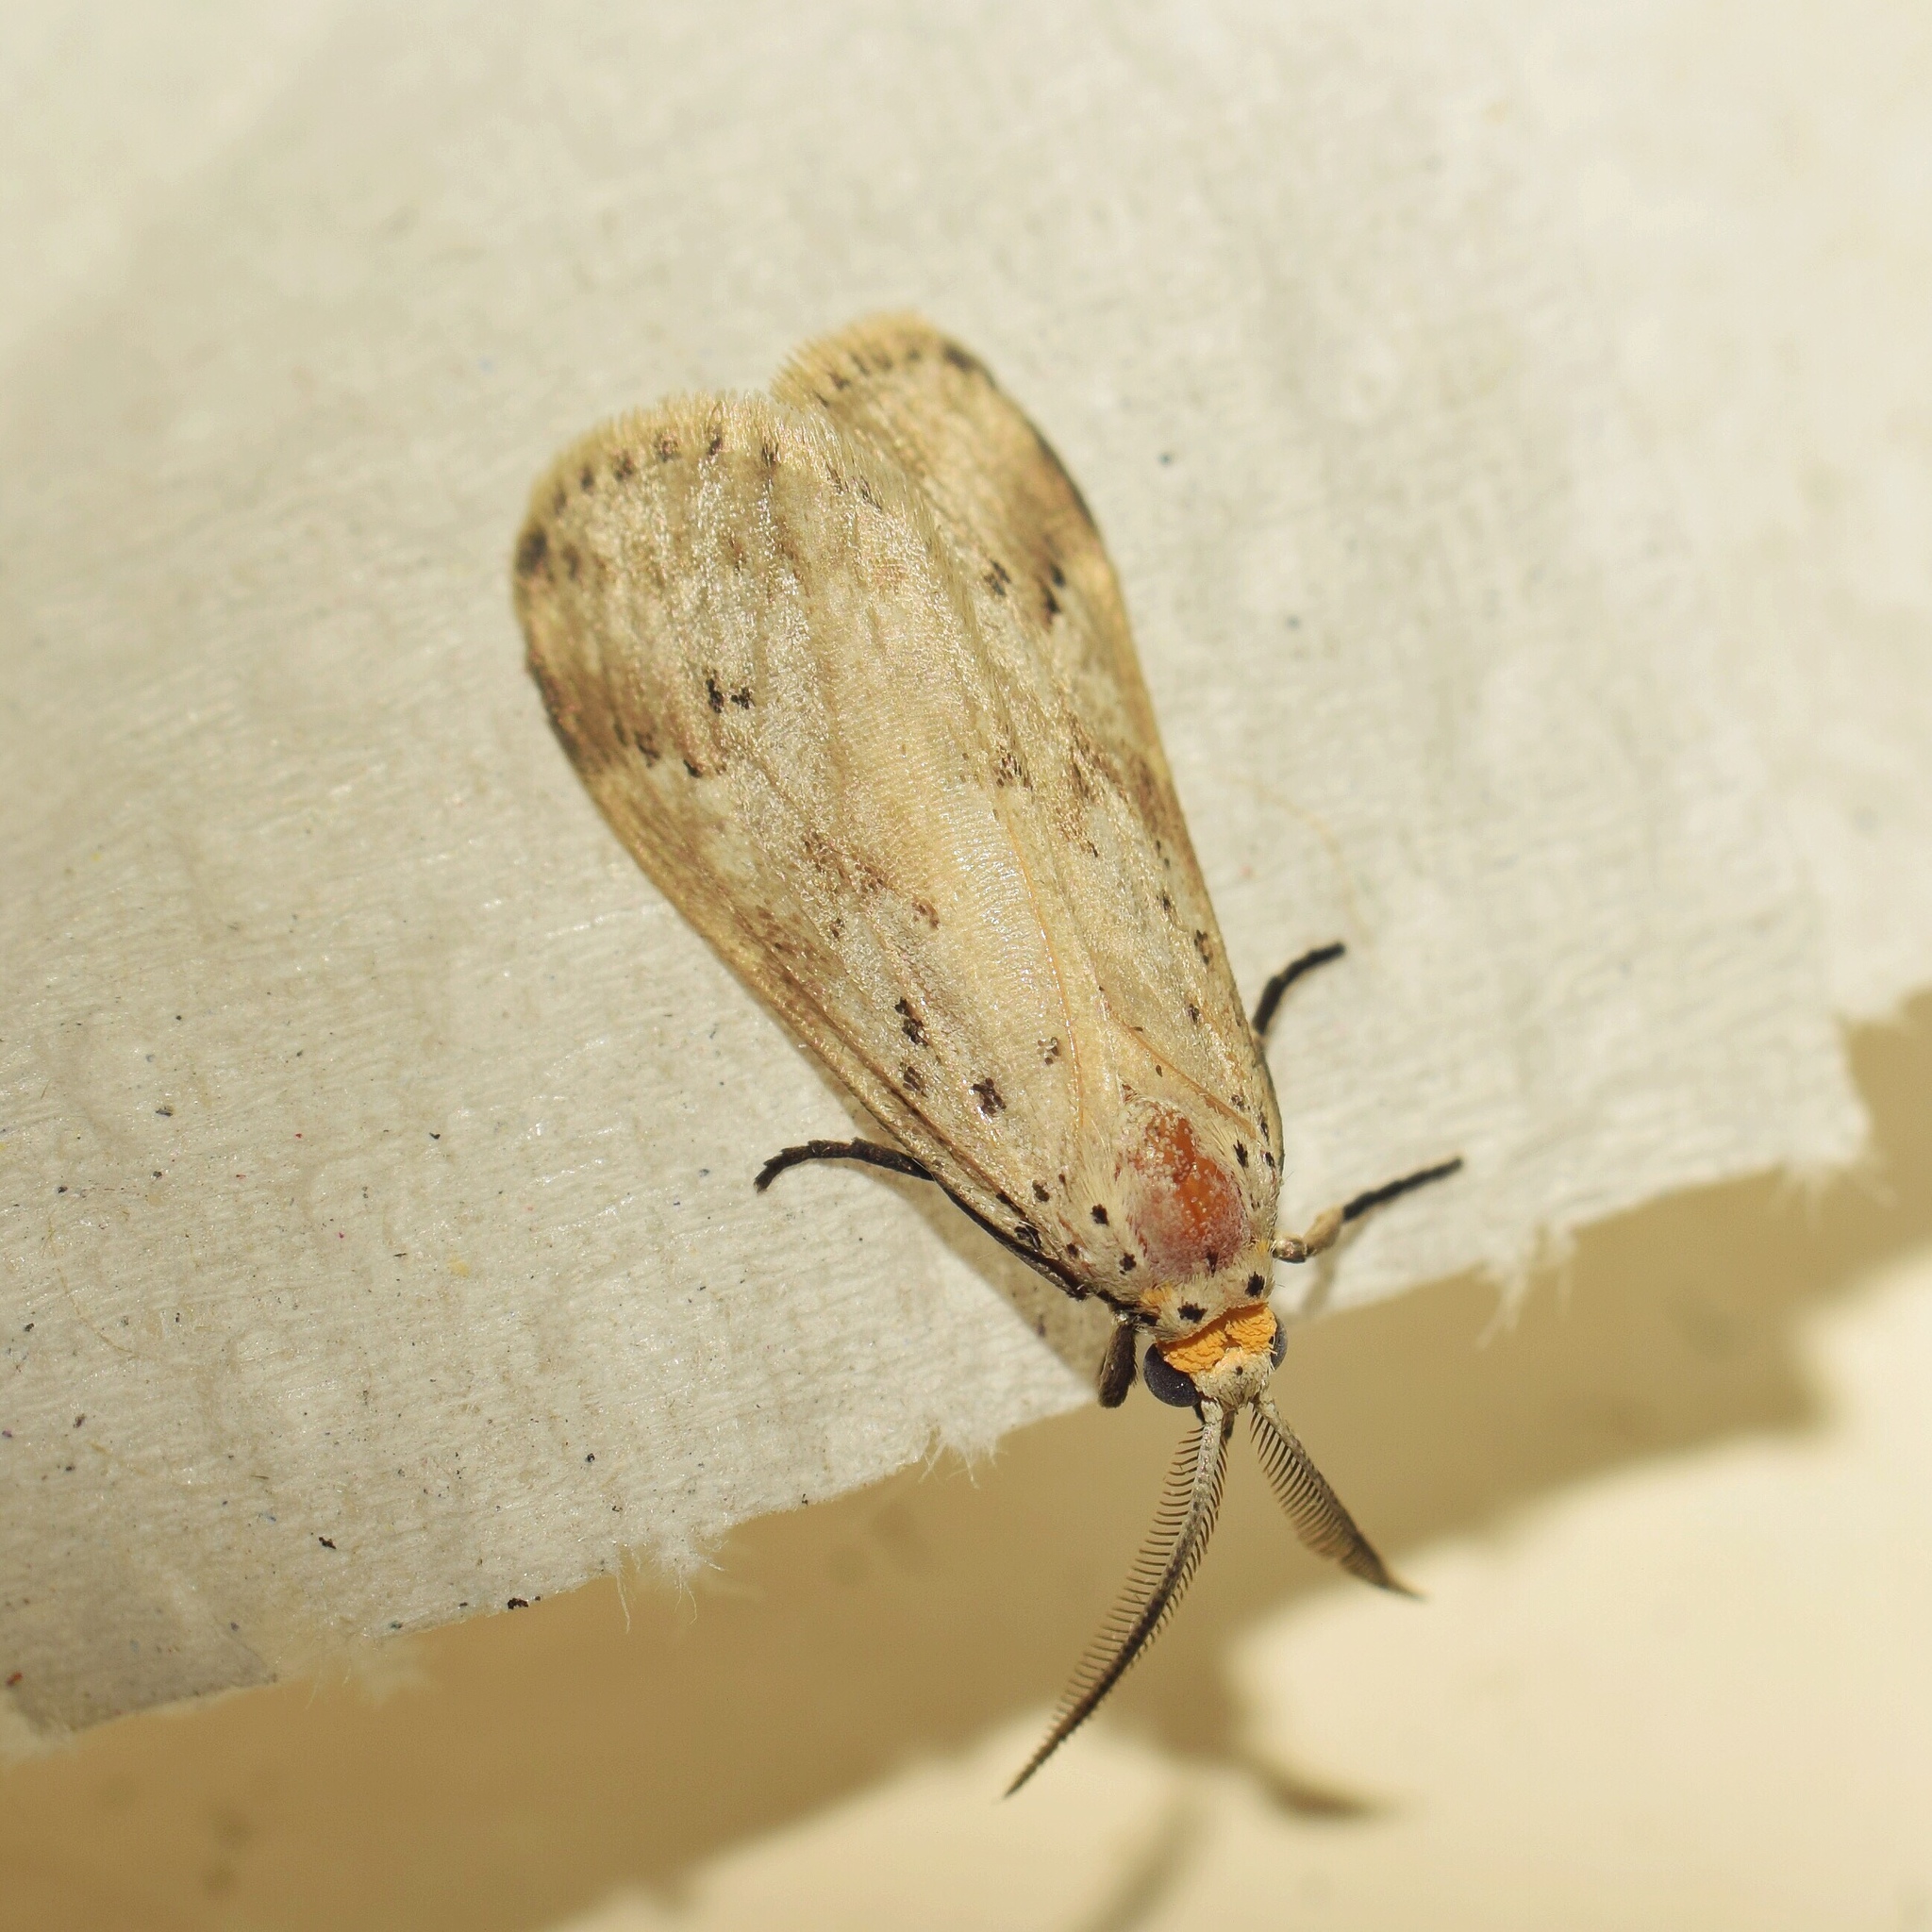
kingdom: Animalia
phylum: Arthropoda
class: Insecta
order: Lepidoptera
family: Erebidae
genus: Galtara
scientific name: Galtara rostrata
